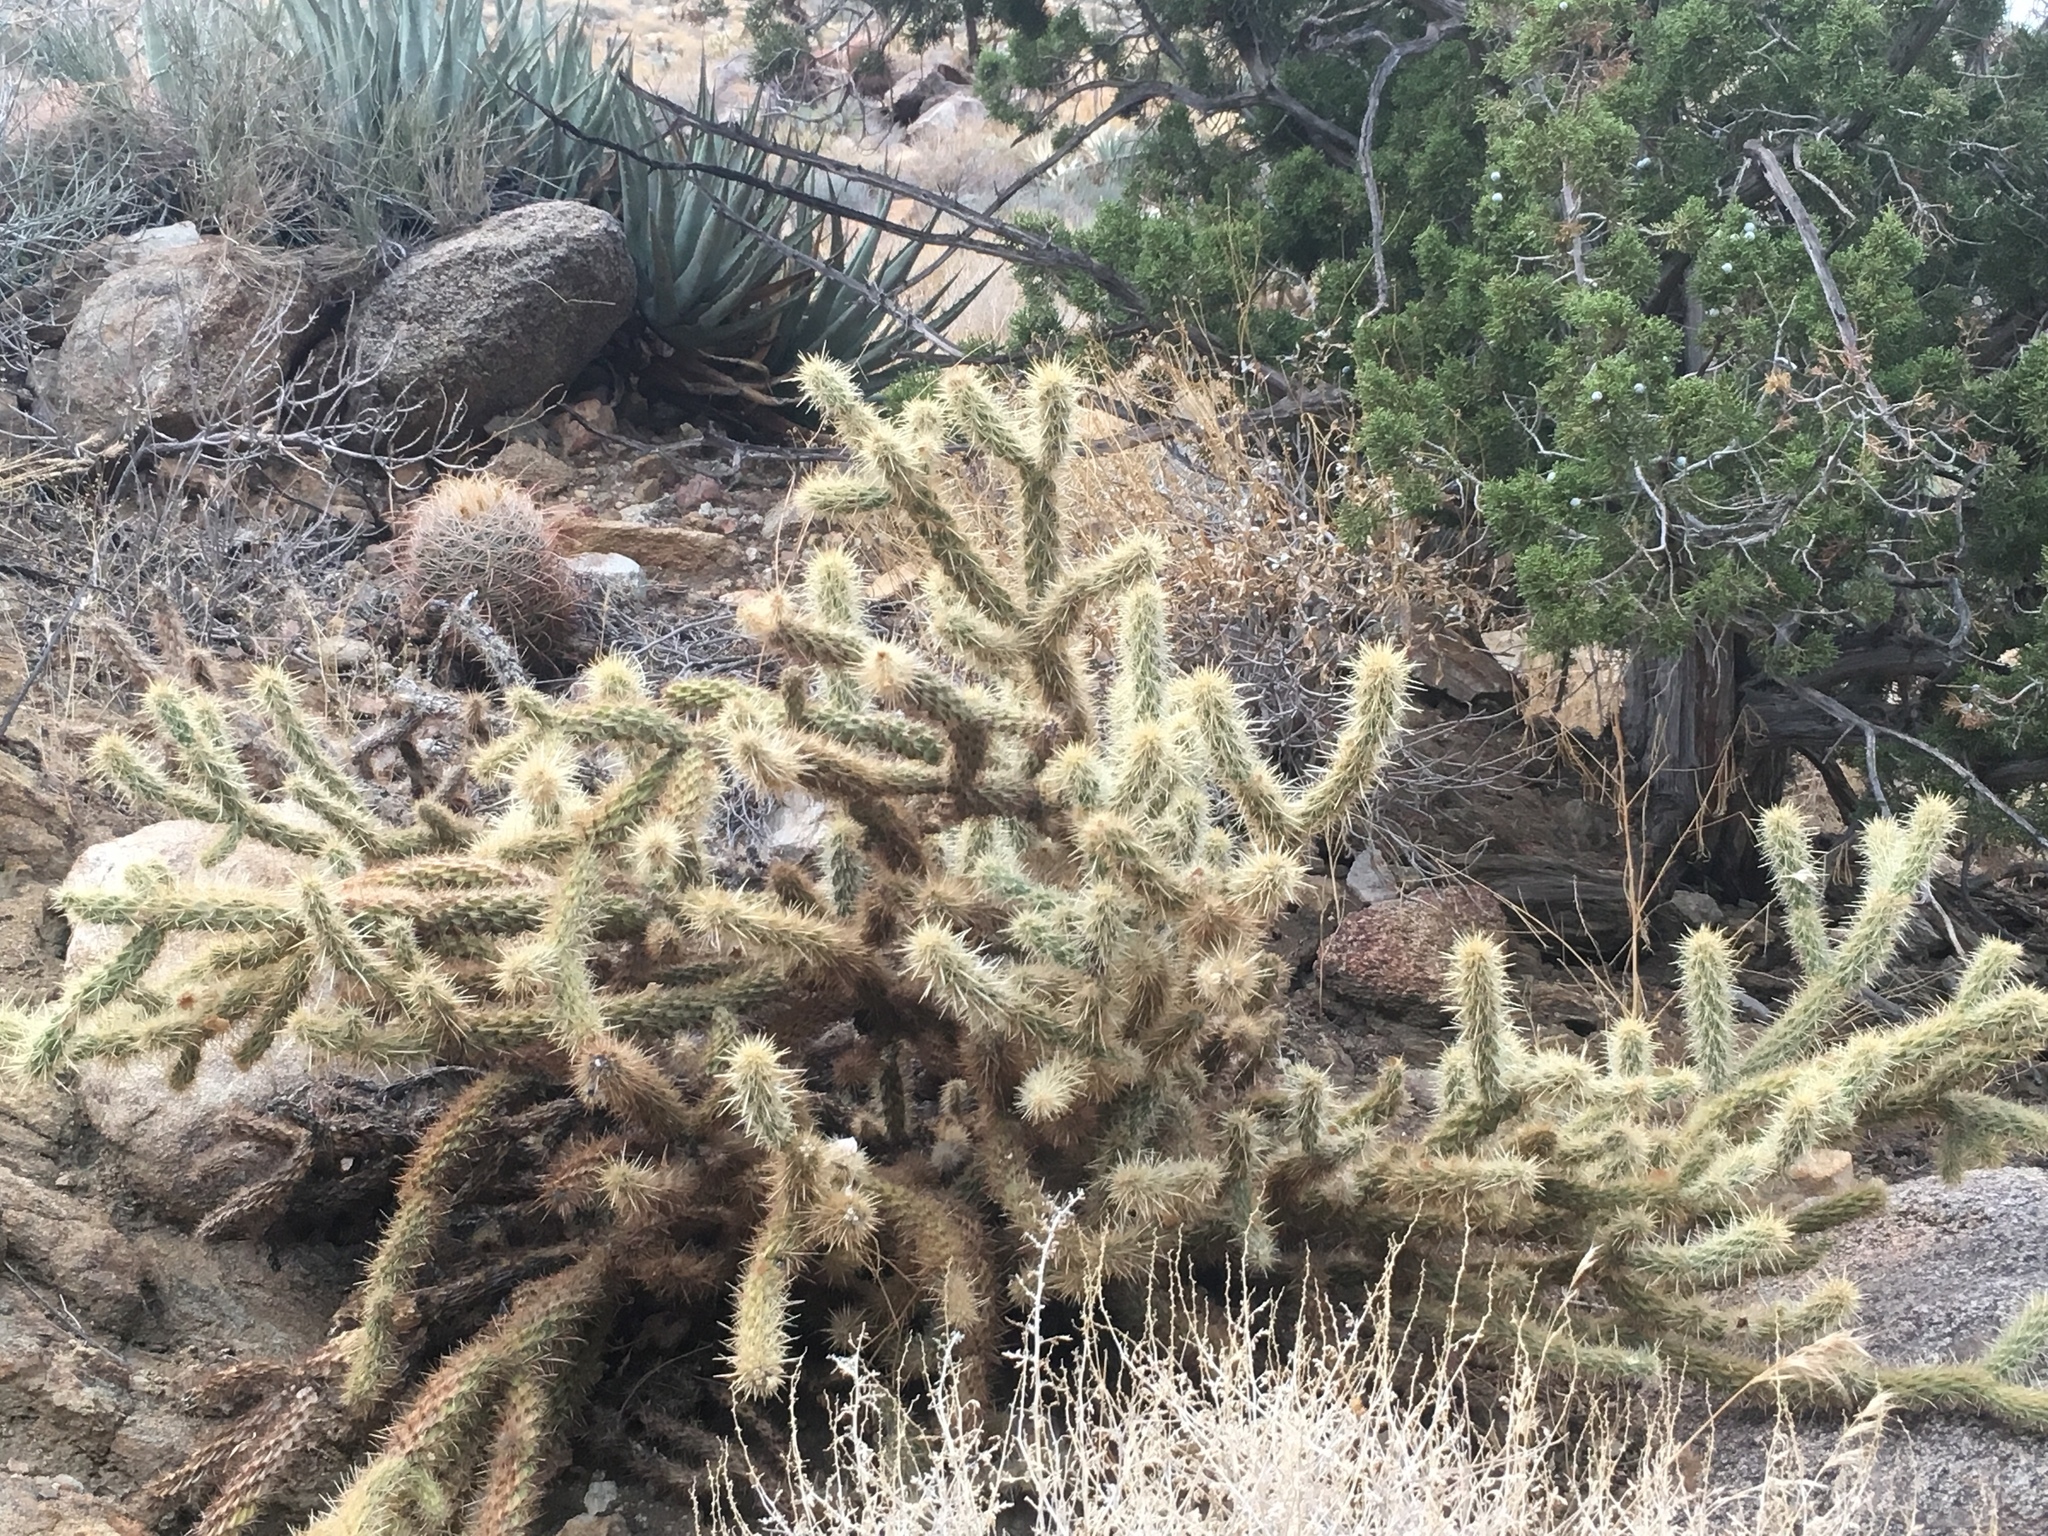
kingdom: Plantae
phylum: Tracheophyta
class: Magnoliopsida
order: Caryophyllales
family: Cactaceae
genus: Cylindropuntia
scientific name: Cylindropuntia ganderi
